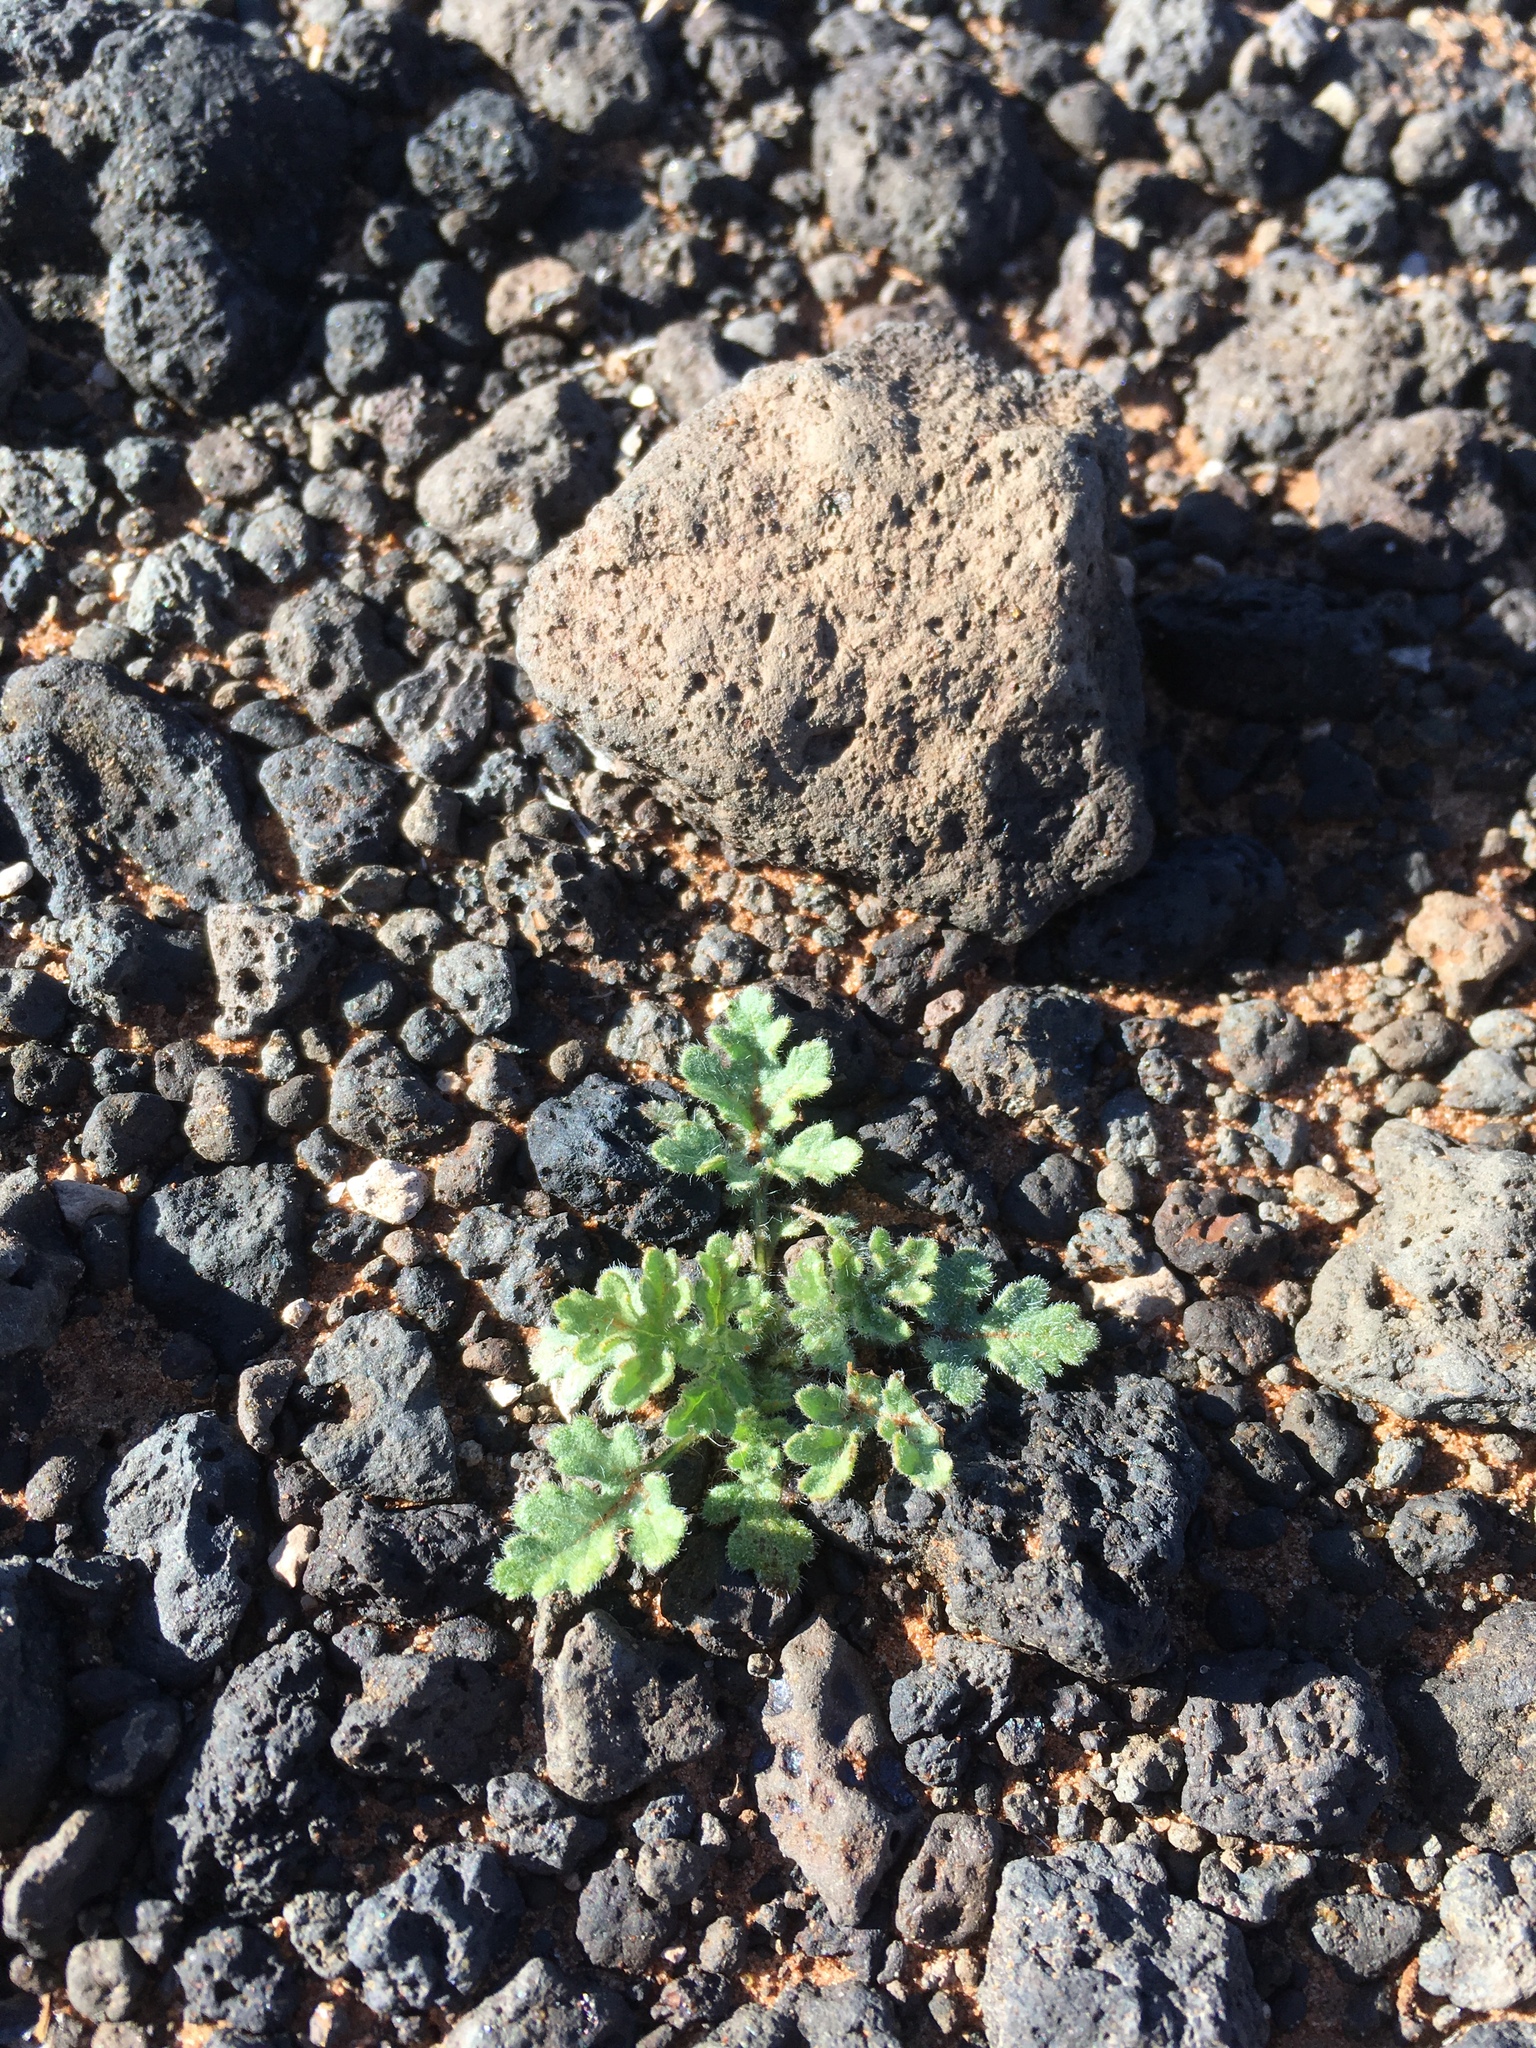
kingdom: Plantae
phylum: Tracheophyta
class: Magnoliopsida
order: Asterales
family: Asteraceae
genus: Hedosyne
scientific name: Hedosyne ambrosiifolia
